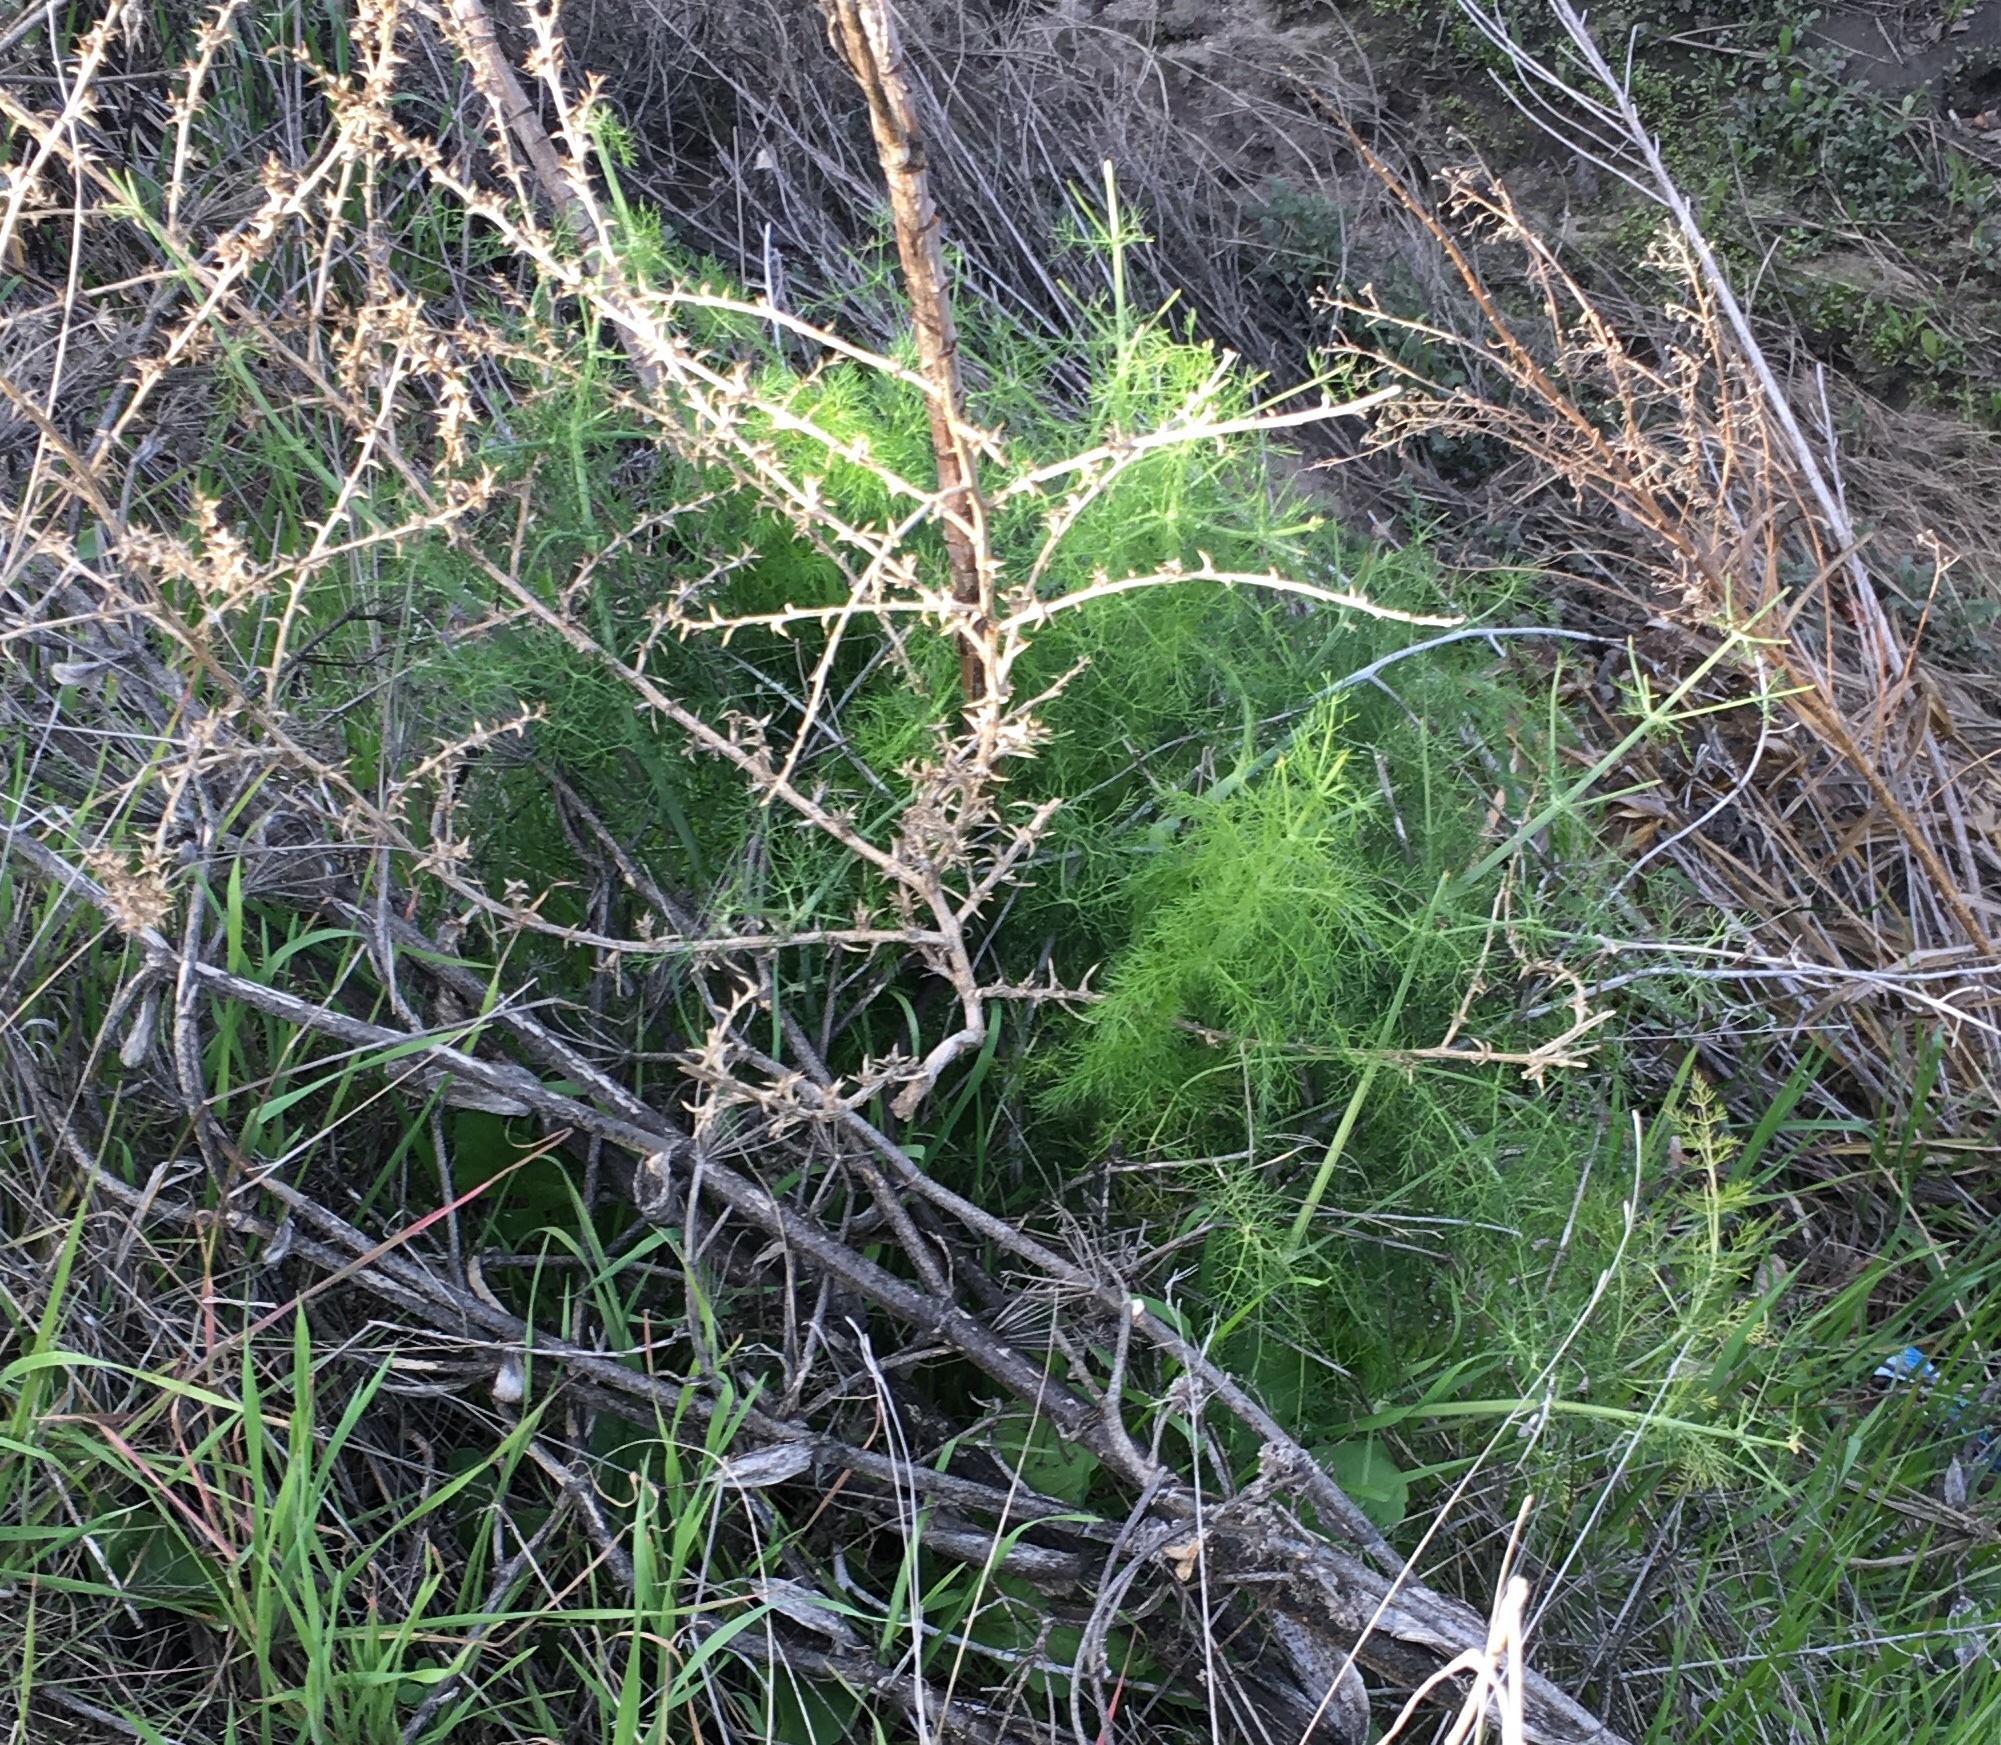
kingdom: Plantae
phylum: Tracheophyta
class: Magnoliopsida
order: Apiales
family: Apiaceae
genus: Foeniculum
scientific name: Foeniculum vulgare
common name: Fennel
